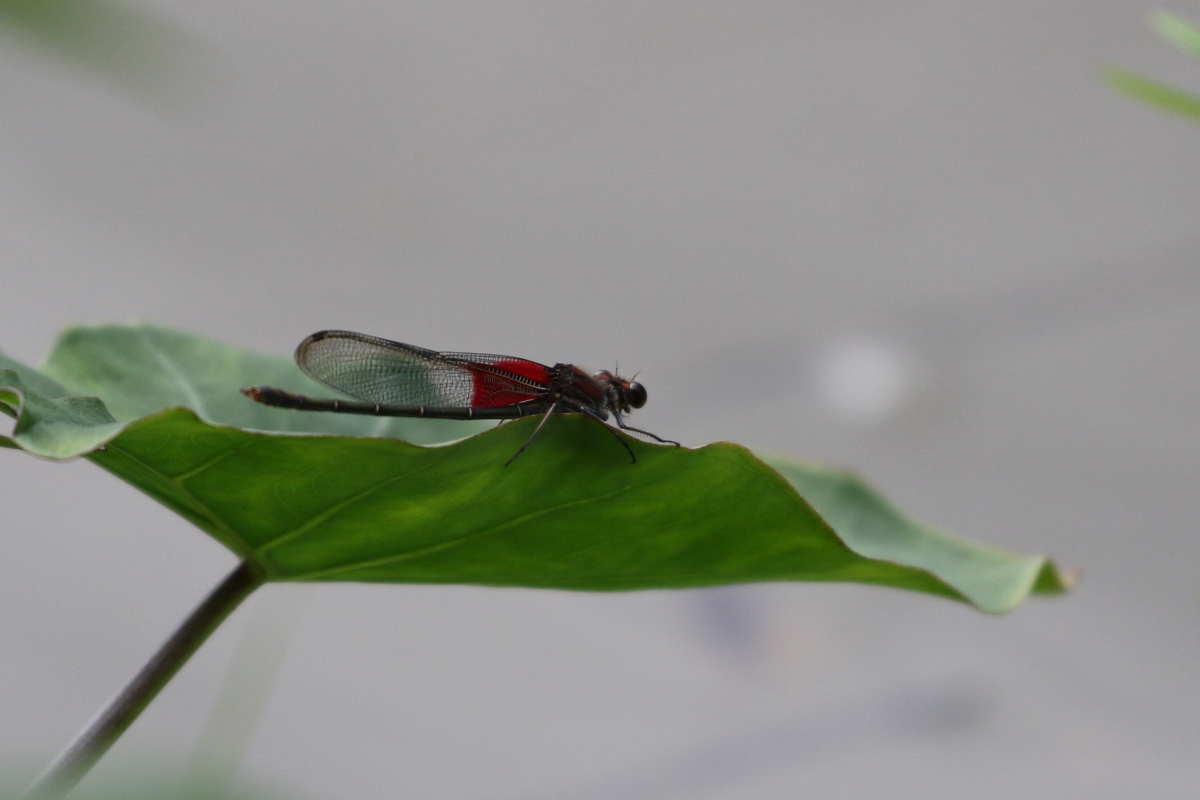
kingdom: Animalia
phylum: Arthropoda
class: Insecta
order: Odonata
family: Calopterygidae
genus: Hetaerina
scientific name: Hetaerina americana
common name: American rubyspot
